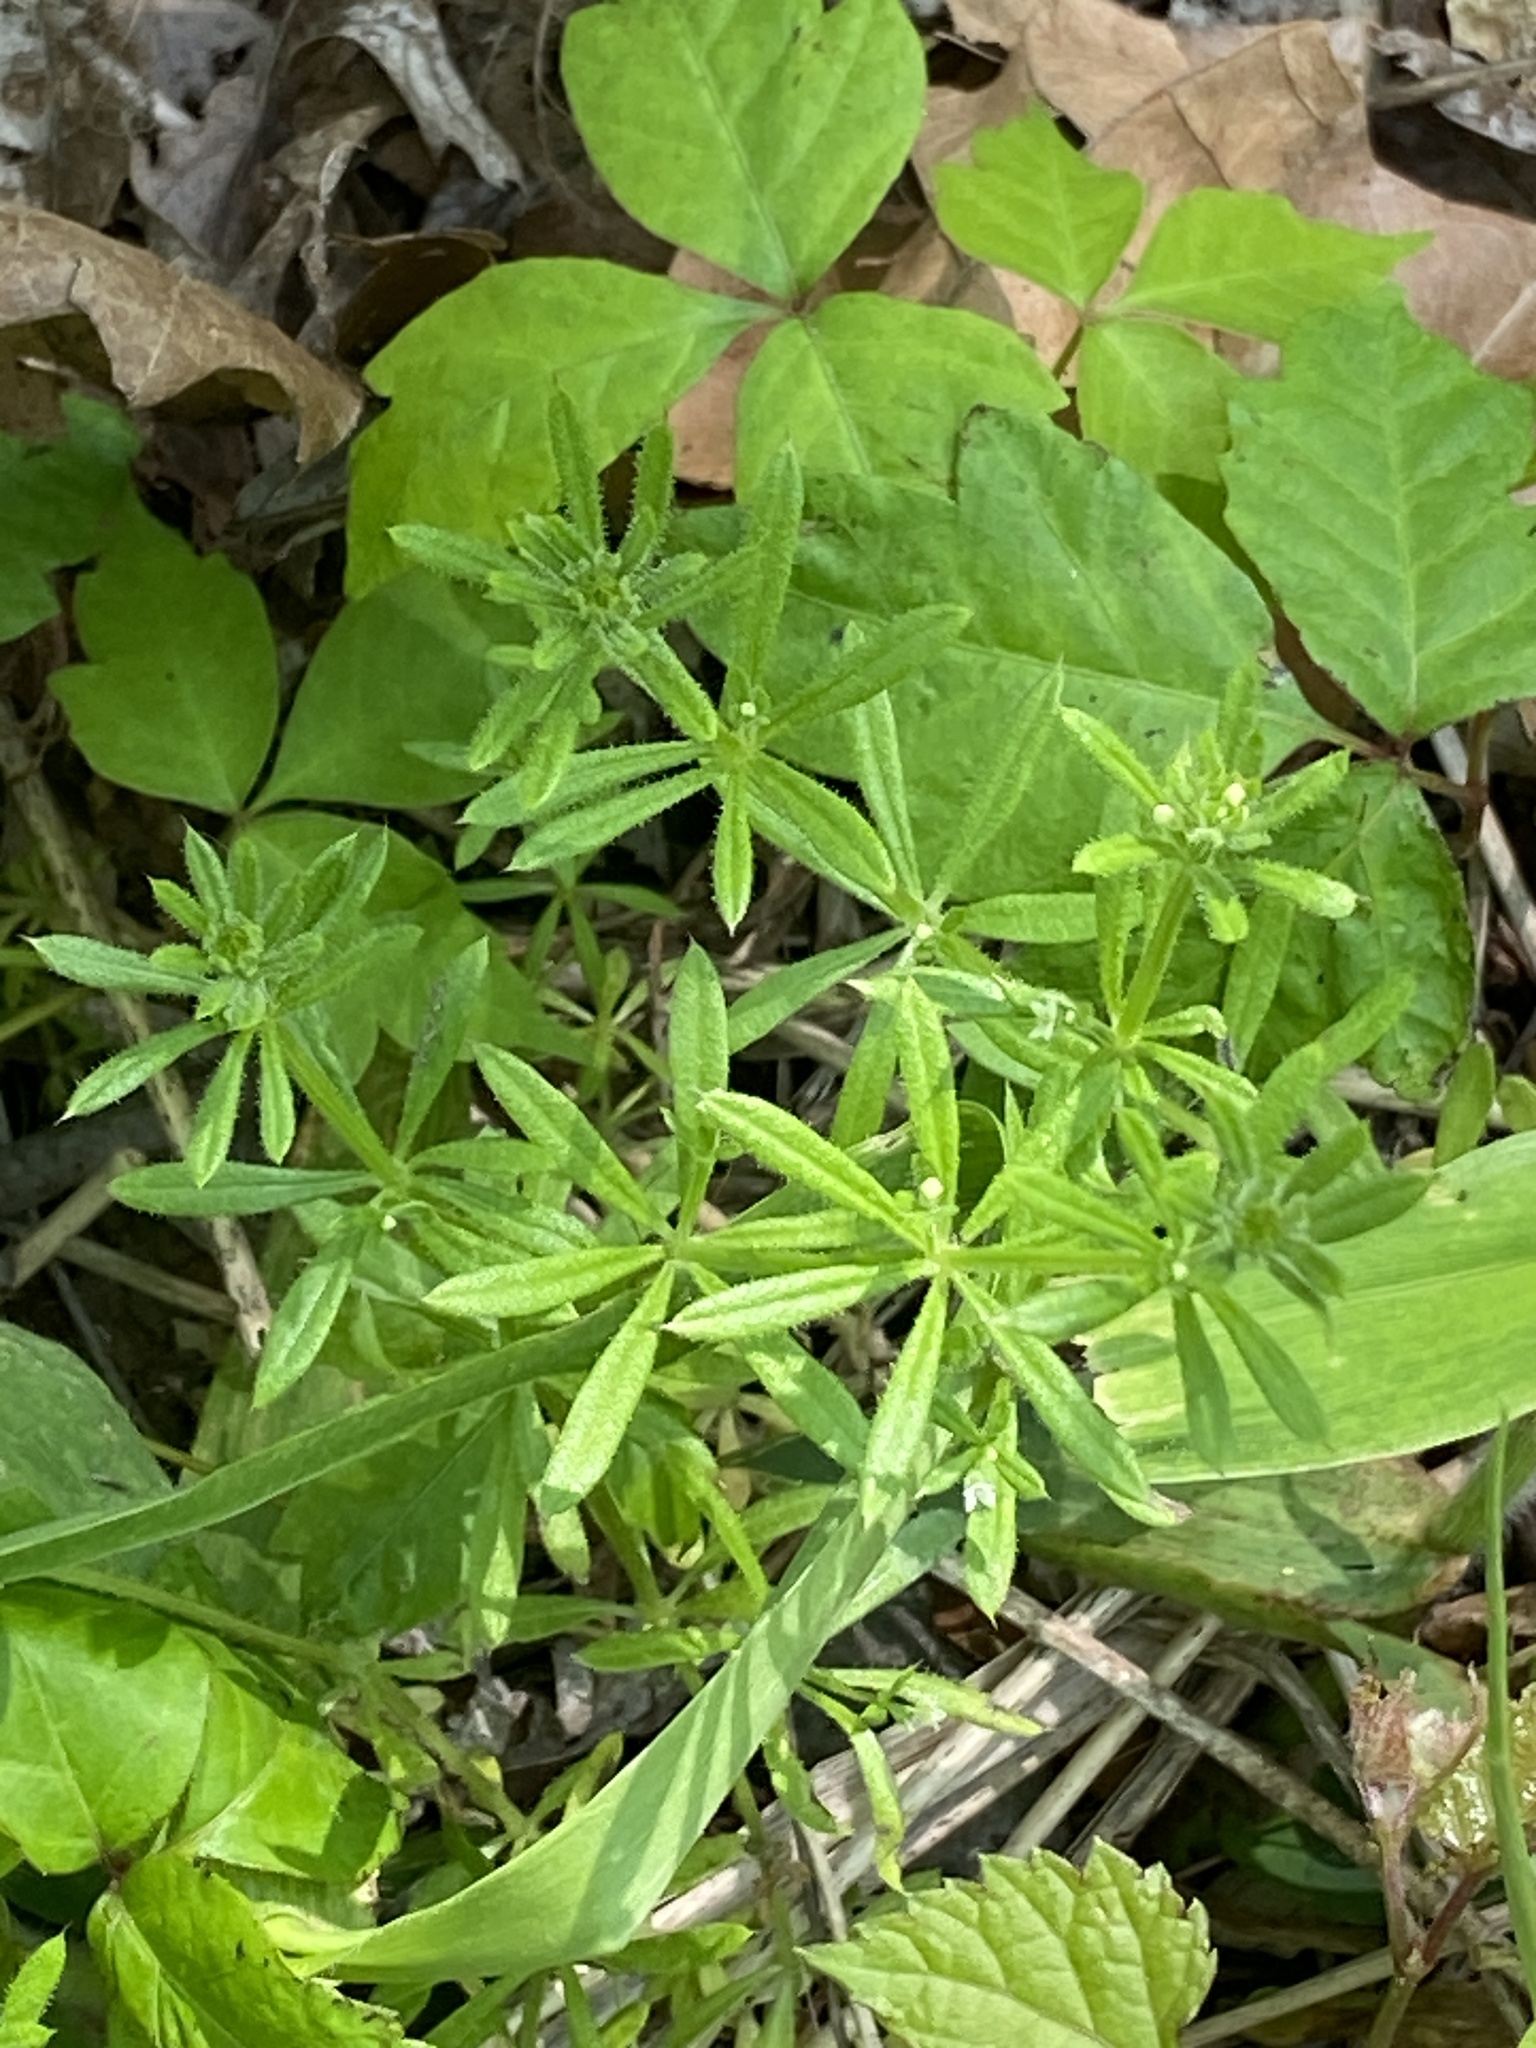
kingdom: Plantae
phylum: Tracheophyta
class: Magnoliopsida
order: Gentianales
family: Rubiaceae
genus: Galium
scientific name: Galium aparine
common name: Cleavers
